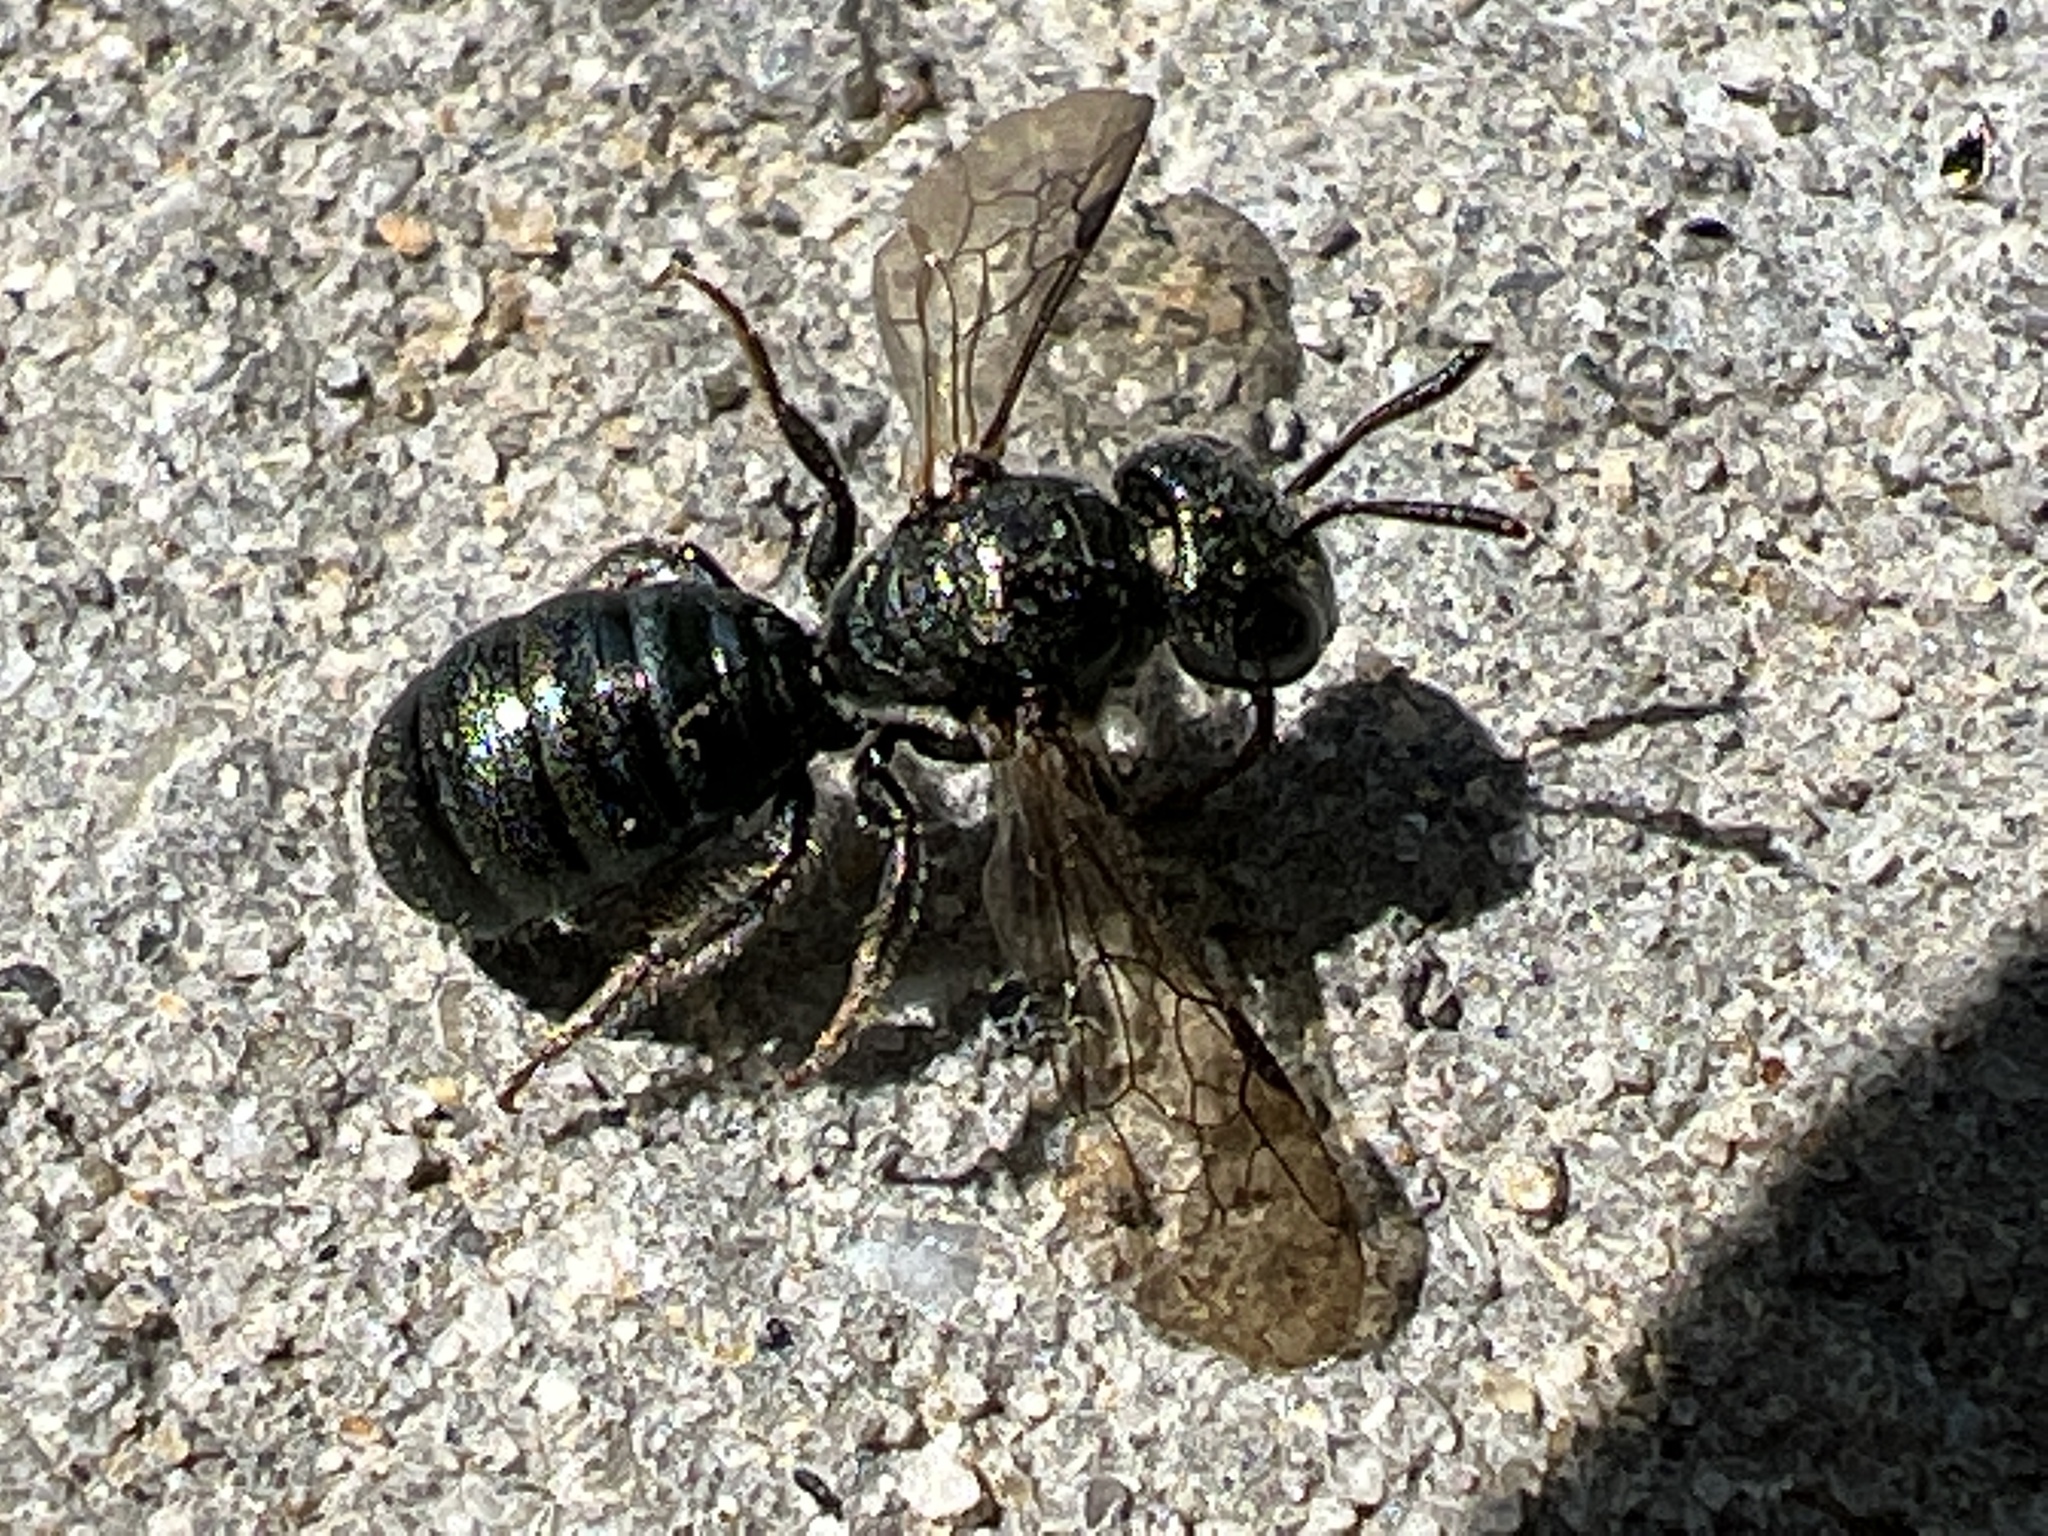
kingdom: Animalia
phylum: Arthropoda
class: Insecta
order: Hymenoptera
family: Apidae
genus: Zadontomerus
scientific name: Zadontomerus
